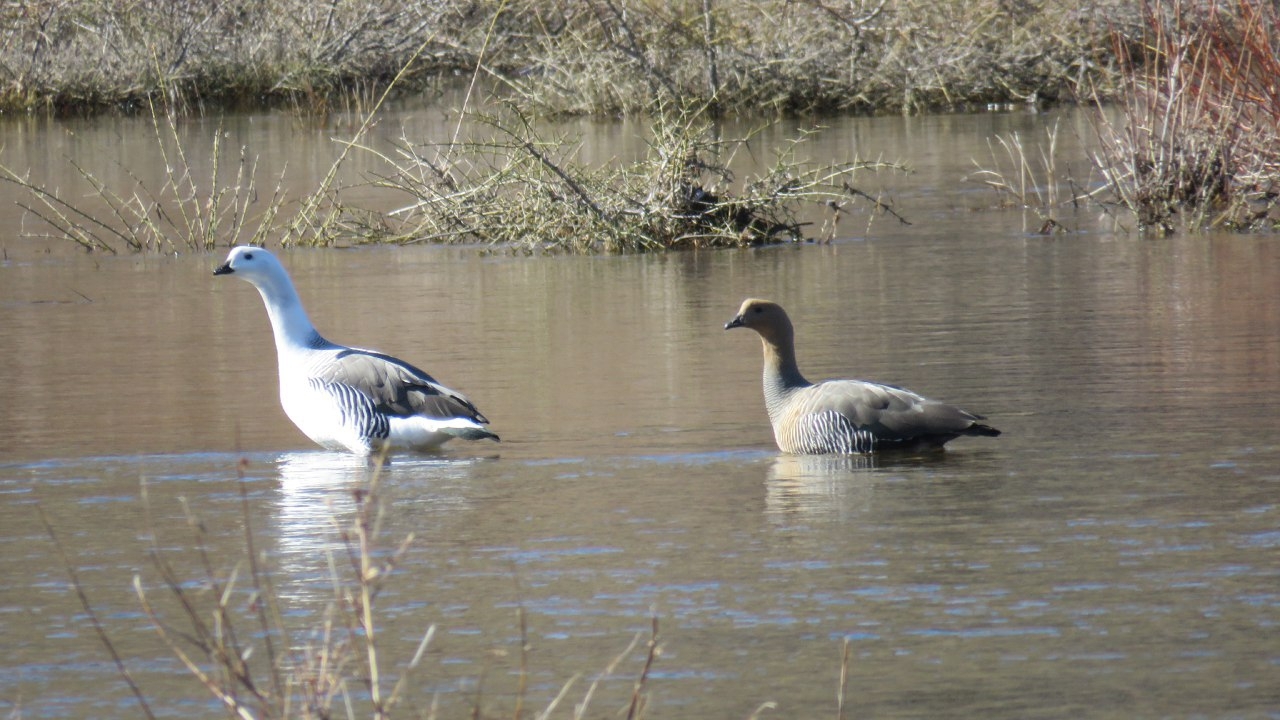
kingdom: Animalia
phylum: Chordata
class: Aves
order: Anseriformes
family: Anatidae
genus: Chloephaga
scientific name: Chloephaga picta
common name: Upland goose
